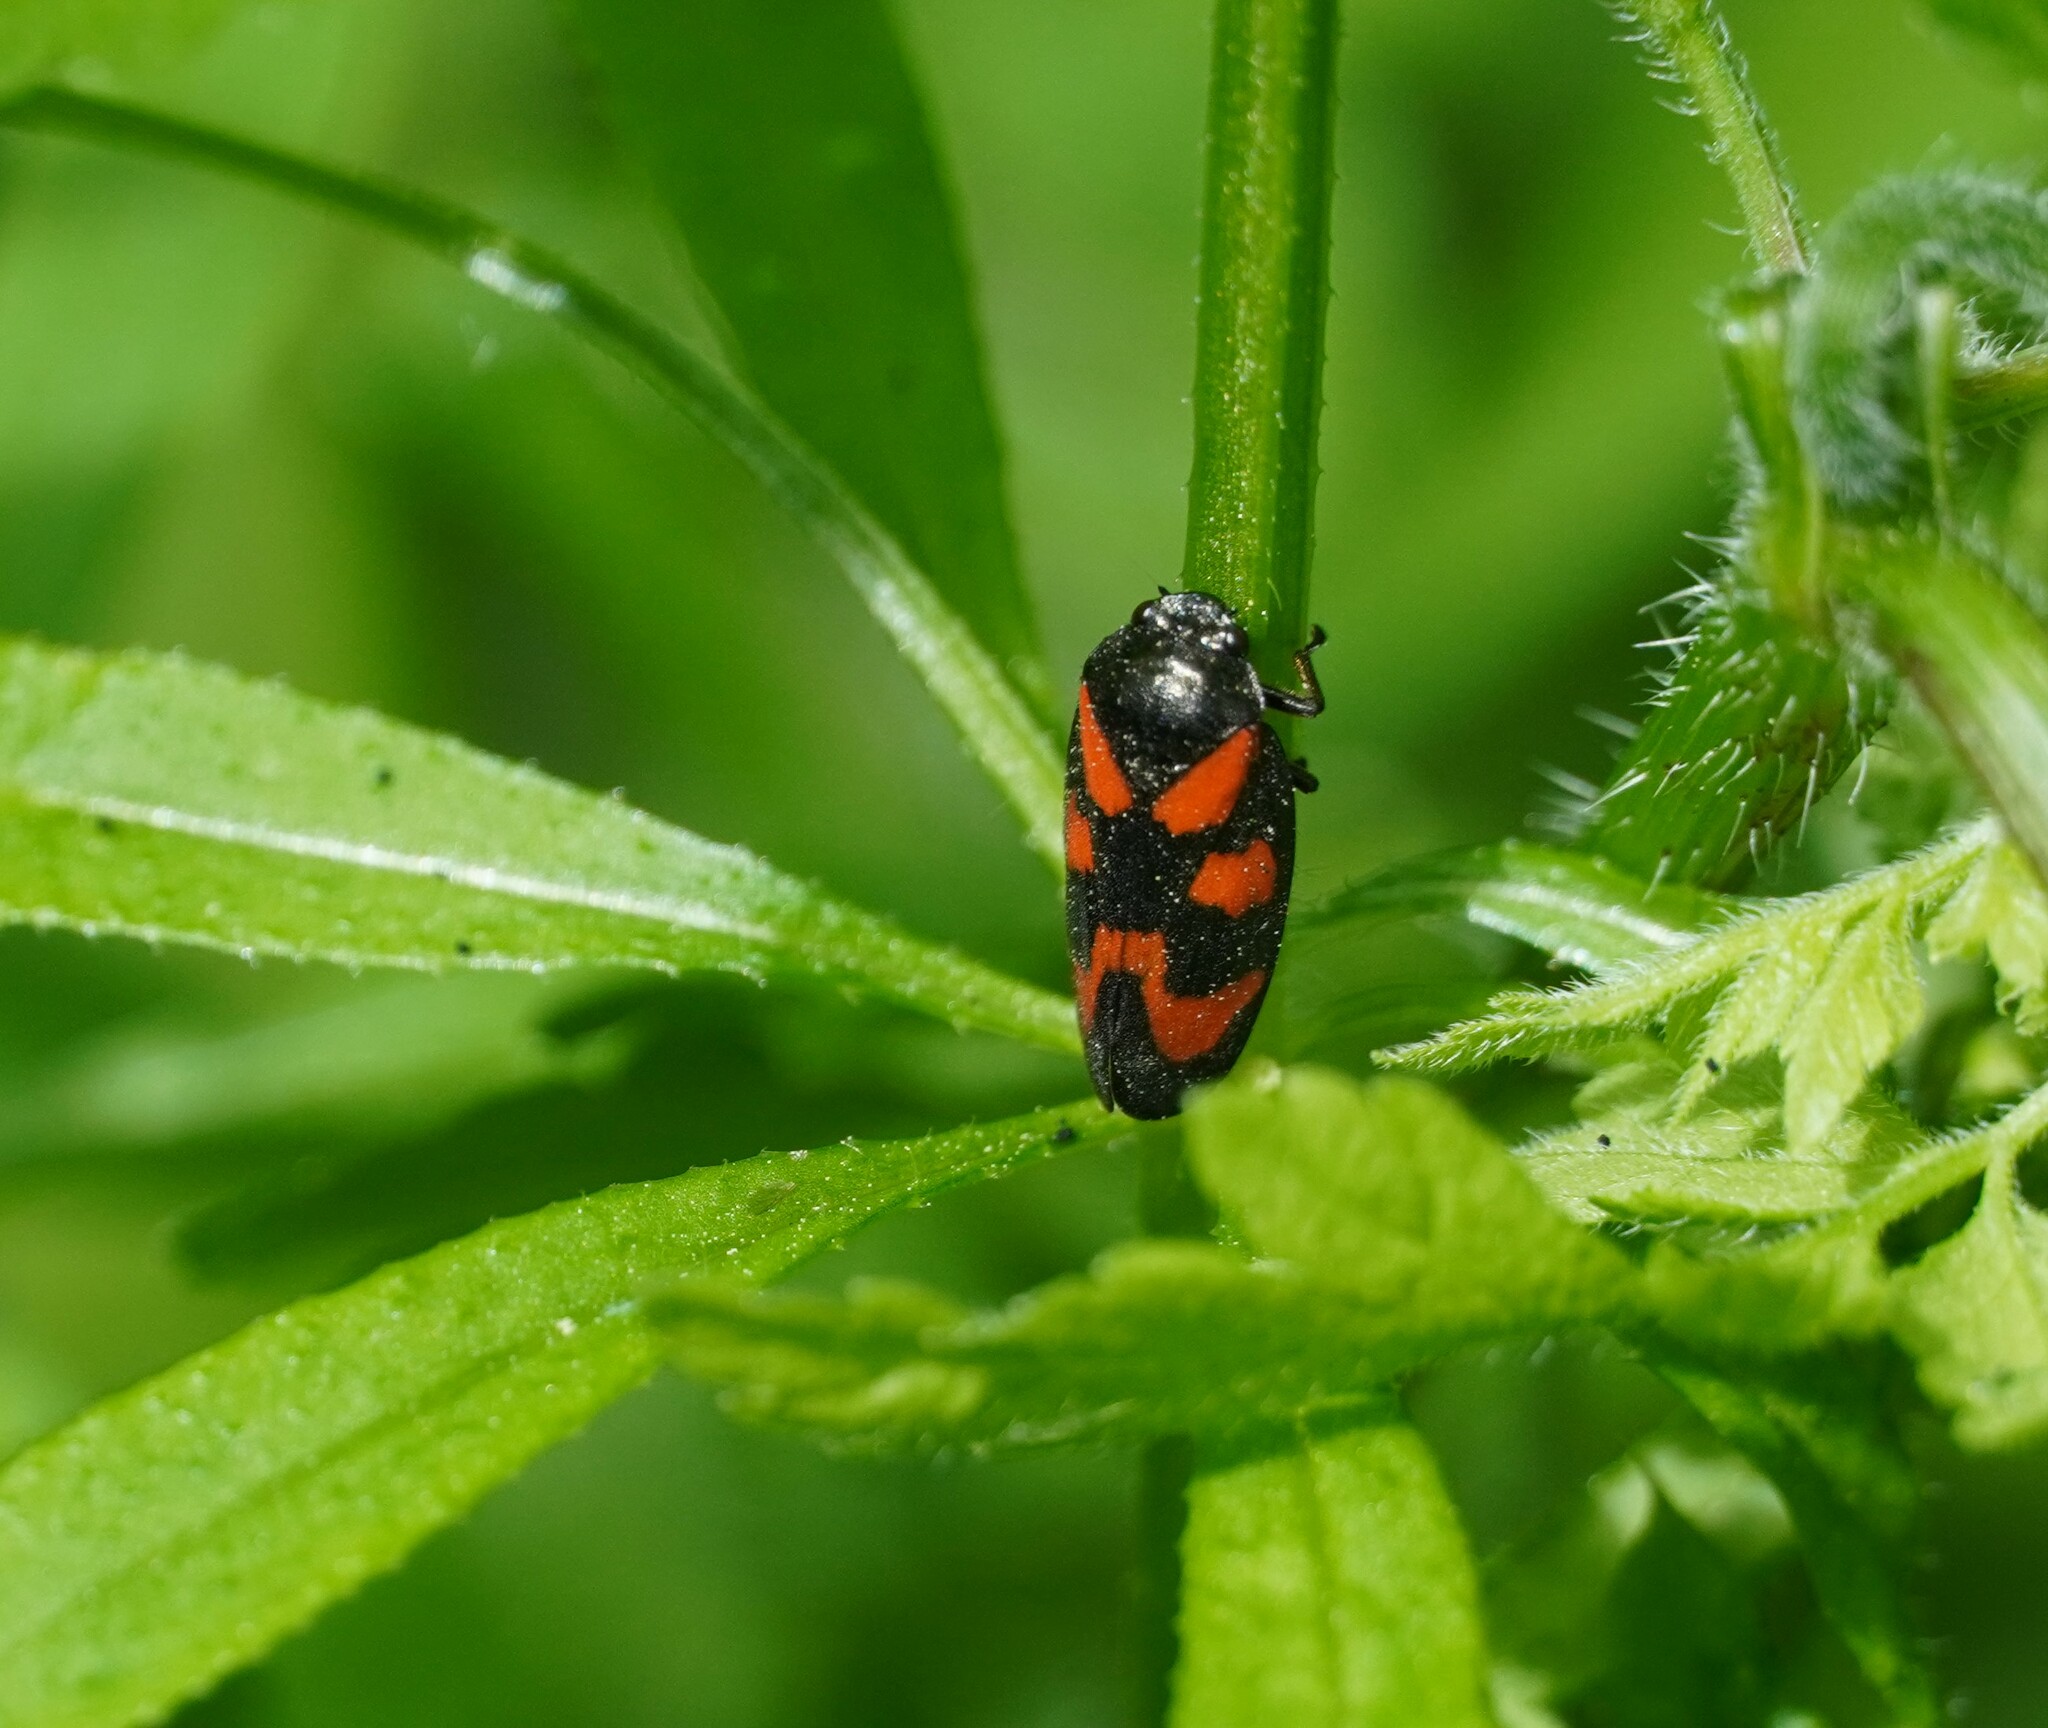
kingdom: Animalia
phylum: Arthropoda
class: Insecta
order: Hemiptera
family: Cercopidae
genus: Cercopis
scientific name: Cercopis vulnerata
